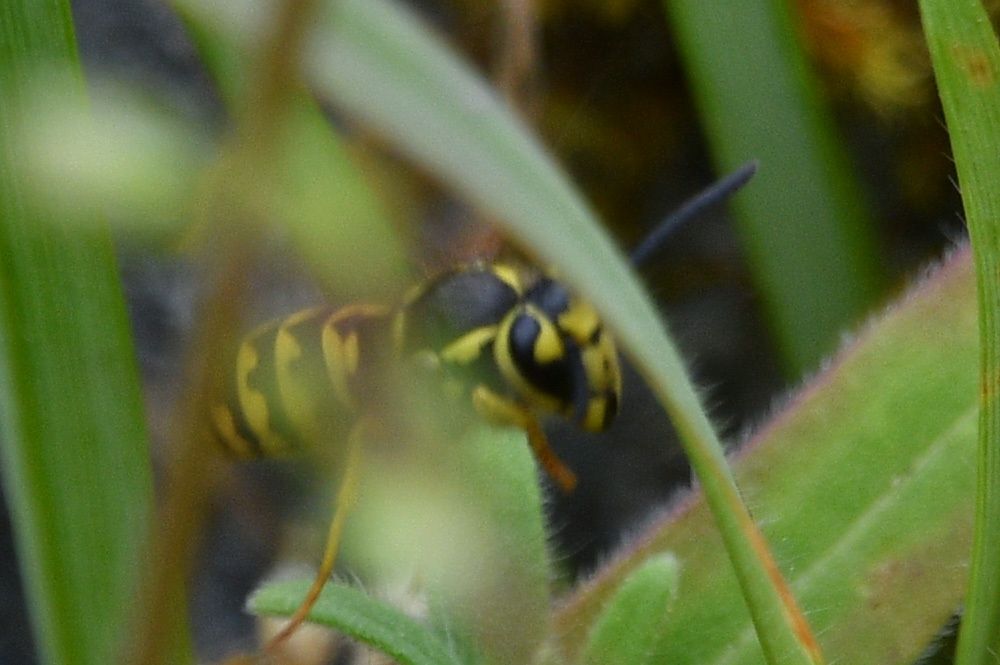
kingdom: Animalia
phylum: Arthropoda
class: Insecta
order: Hymenoptera
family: Vespidae
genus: Vespula
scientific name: Vespula pensylvanica
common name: Western yellowjacket
